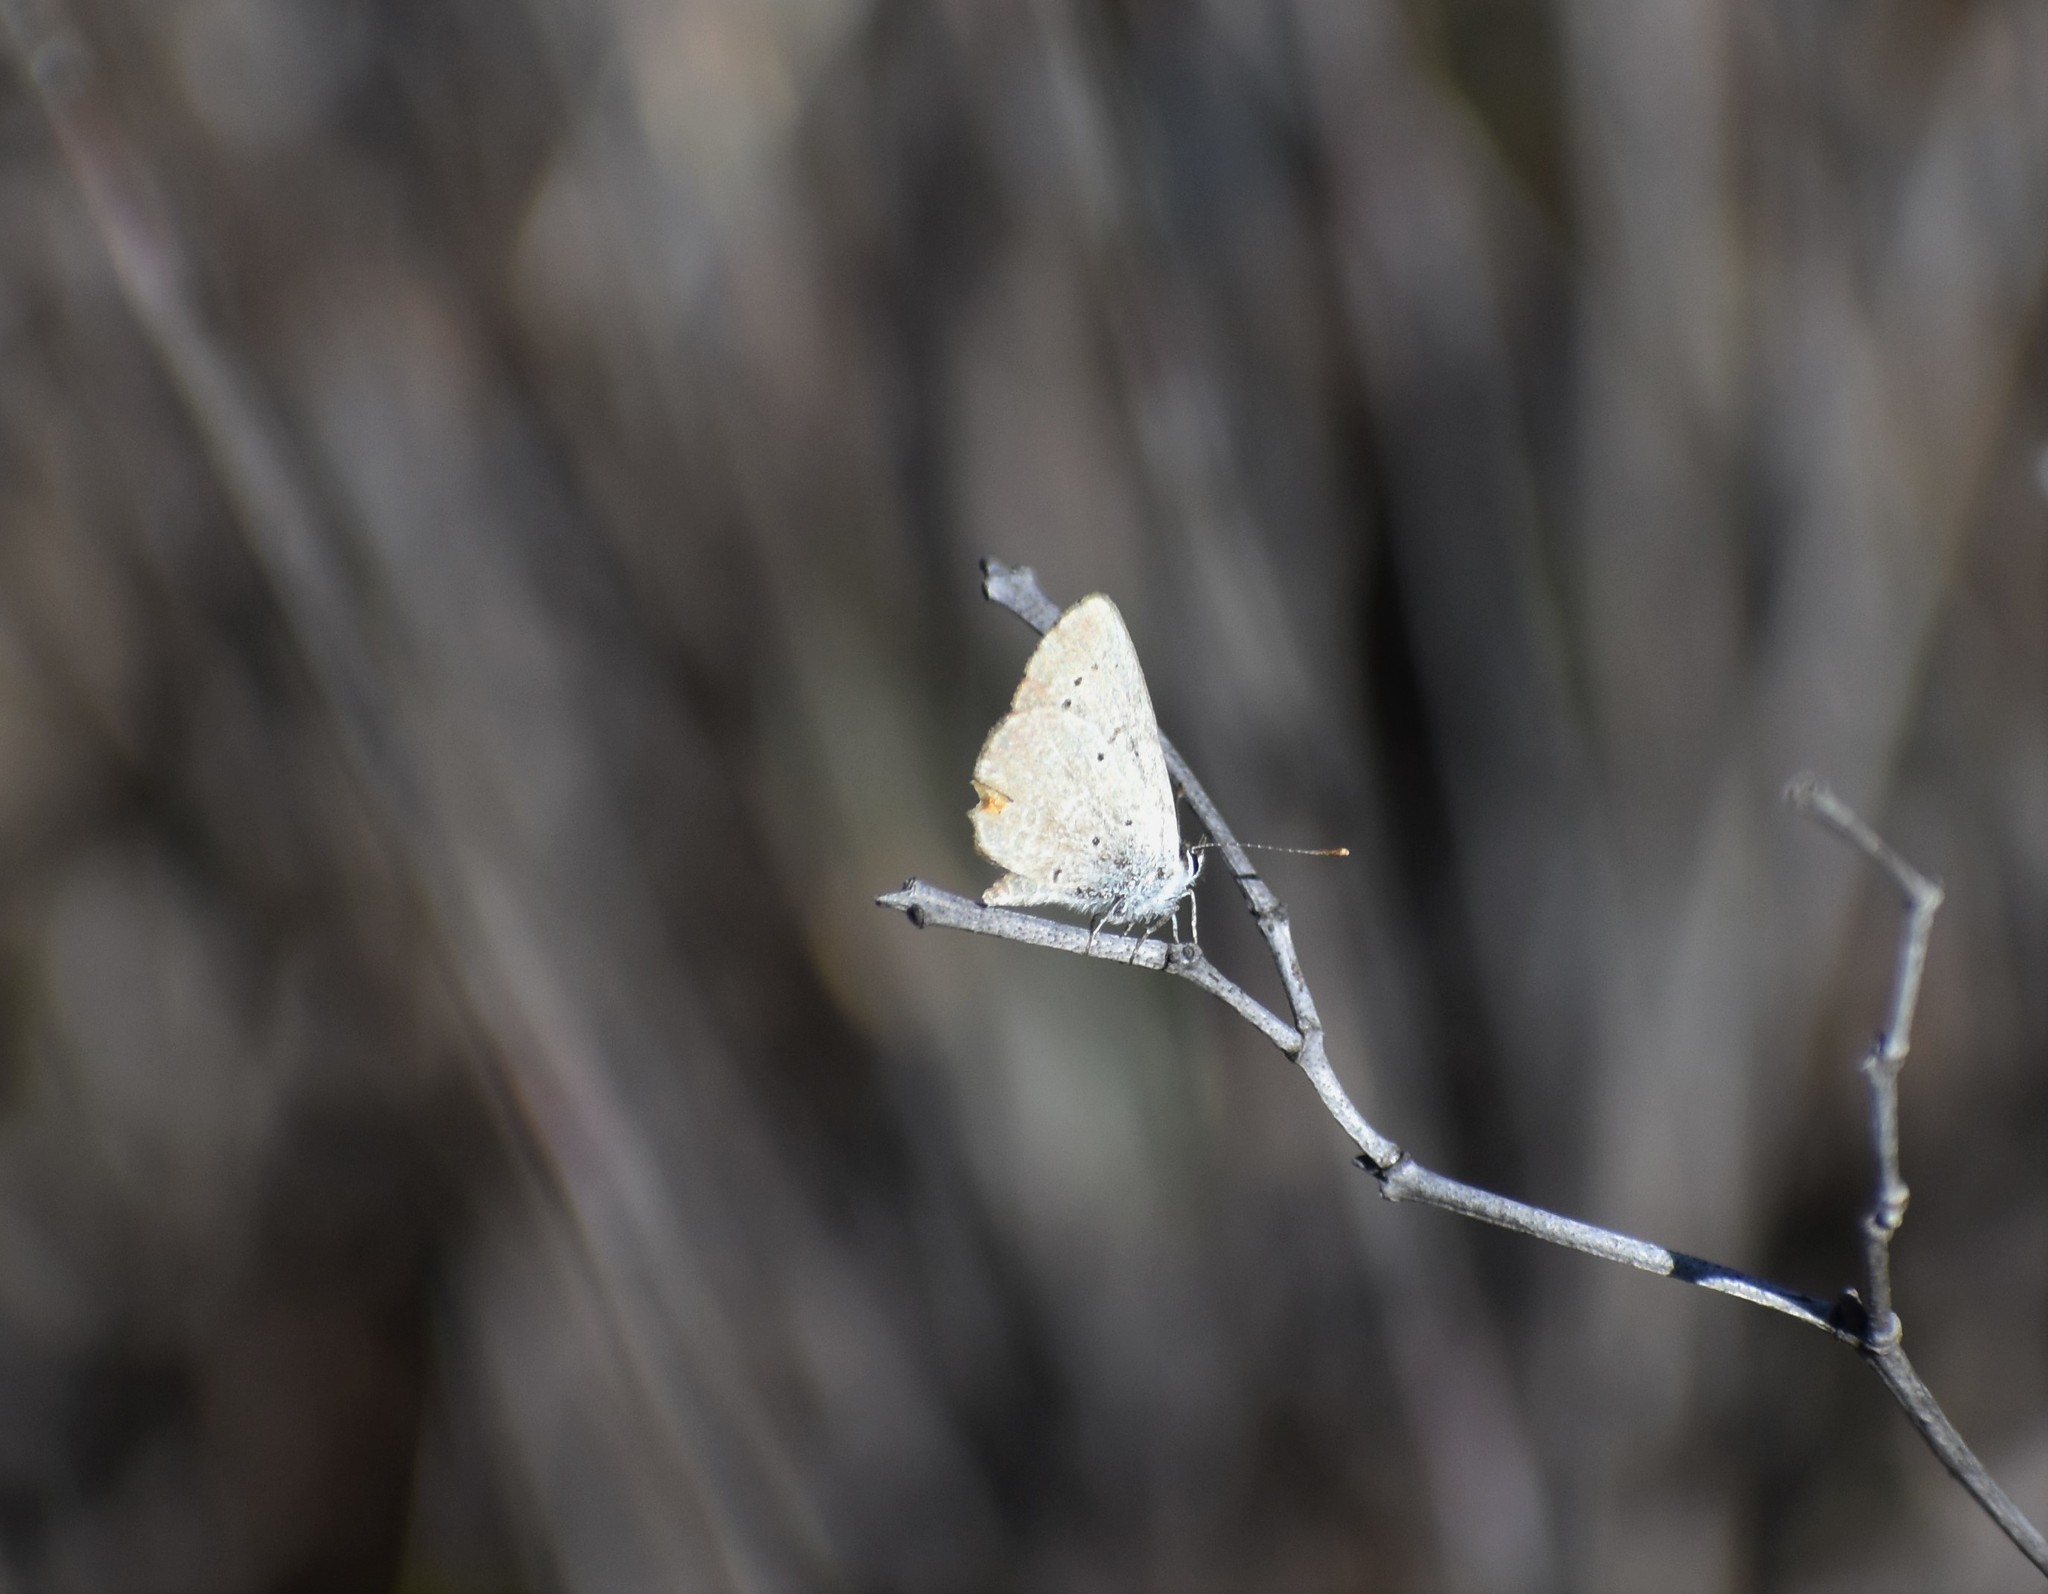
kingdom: Animalia
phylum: Arthropoda
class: Insecta
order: Lepidoptera
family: Lycaenidae
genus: Eicochrysops
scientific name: Eicochrysops messapus
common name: Cupreous blue
